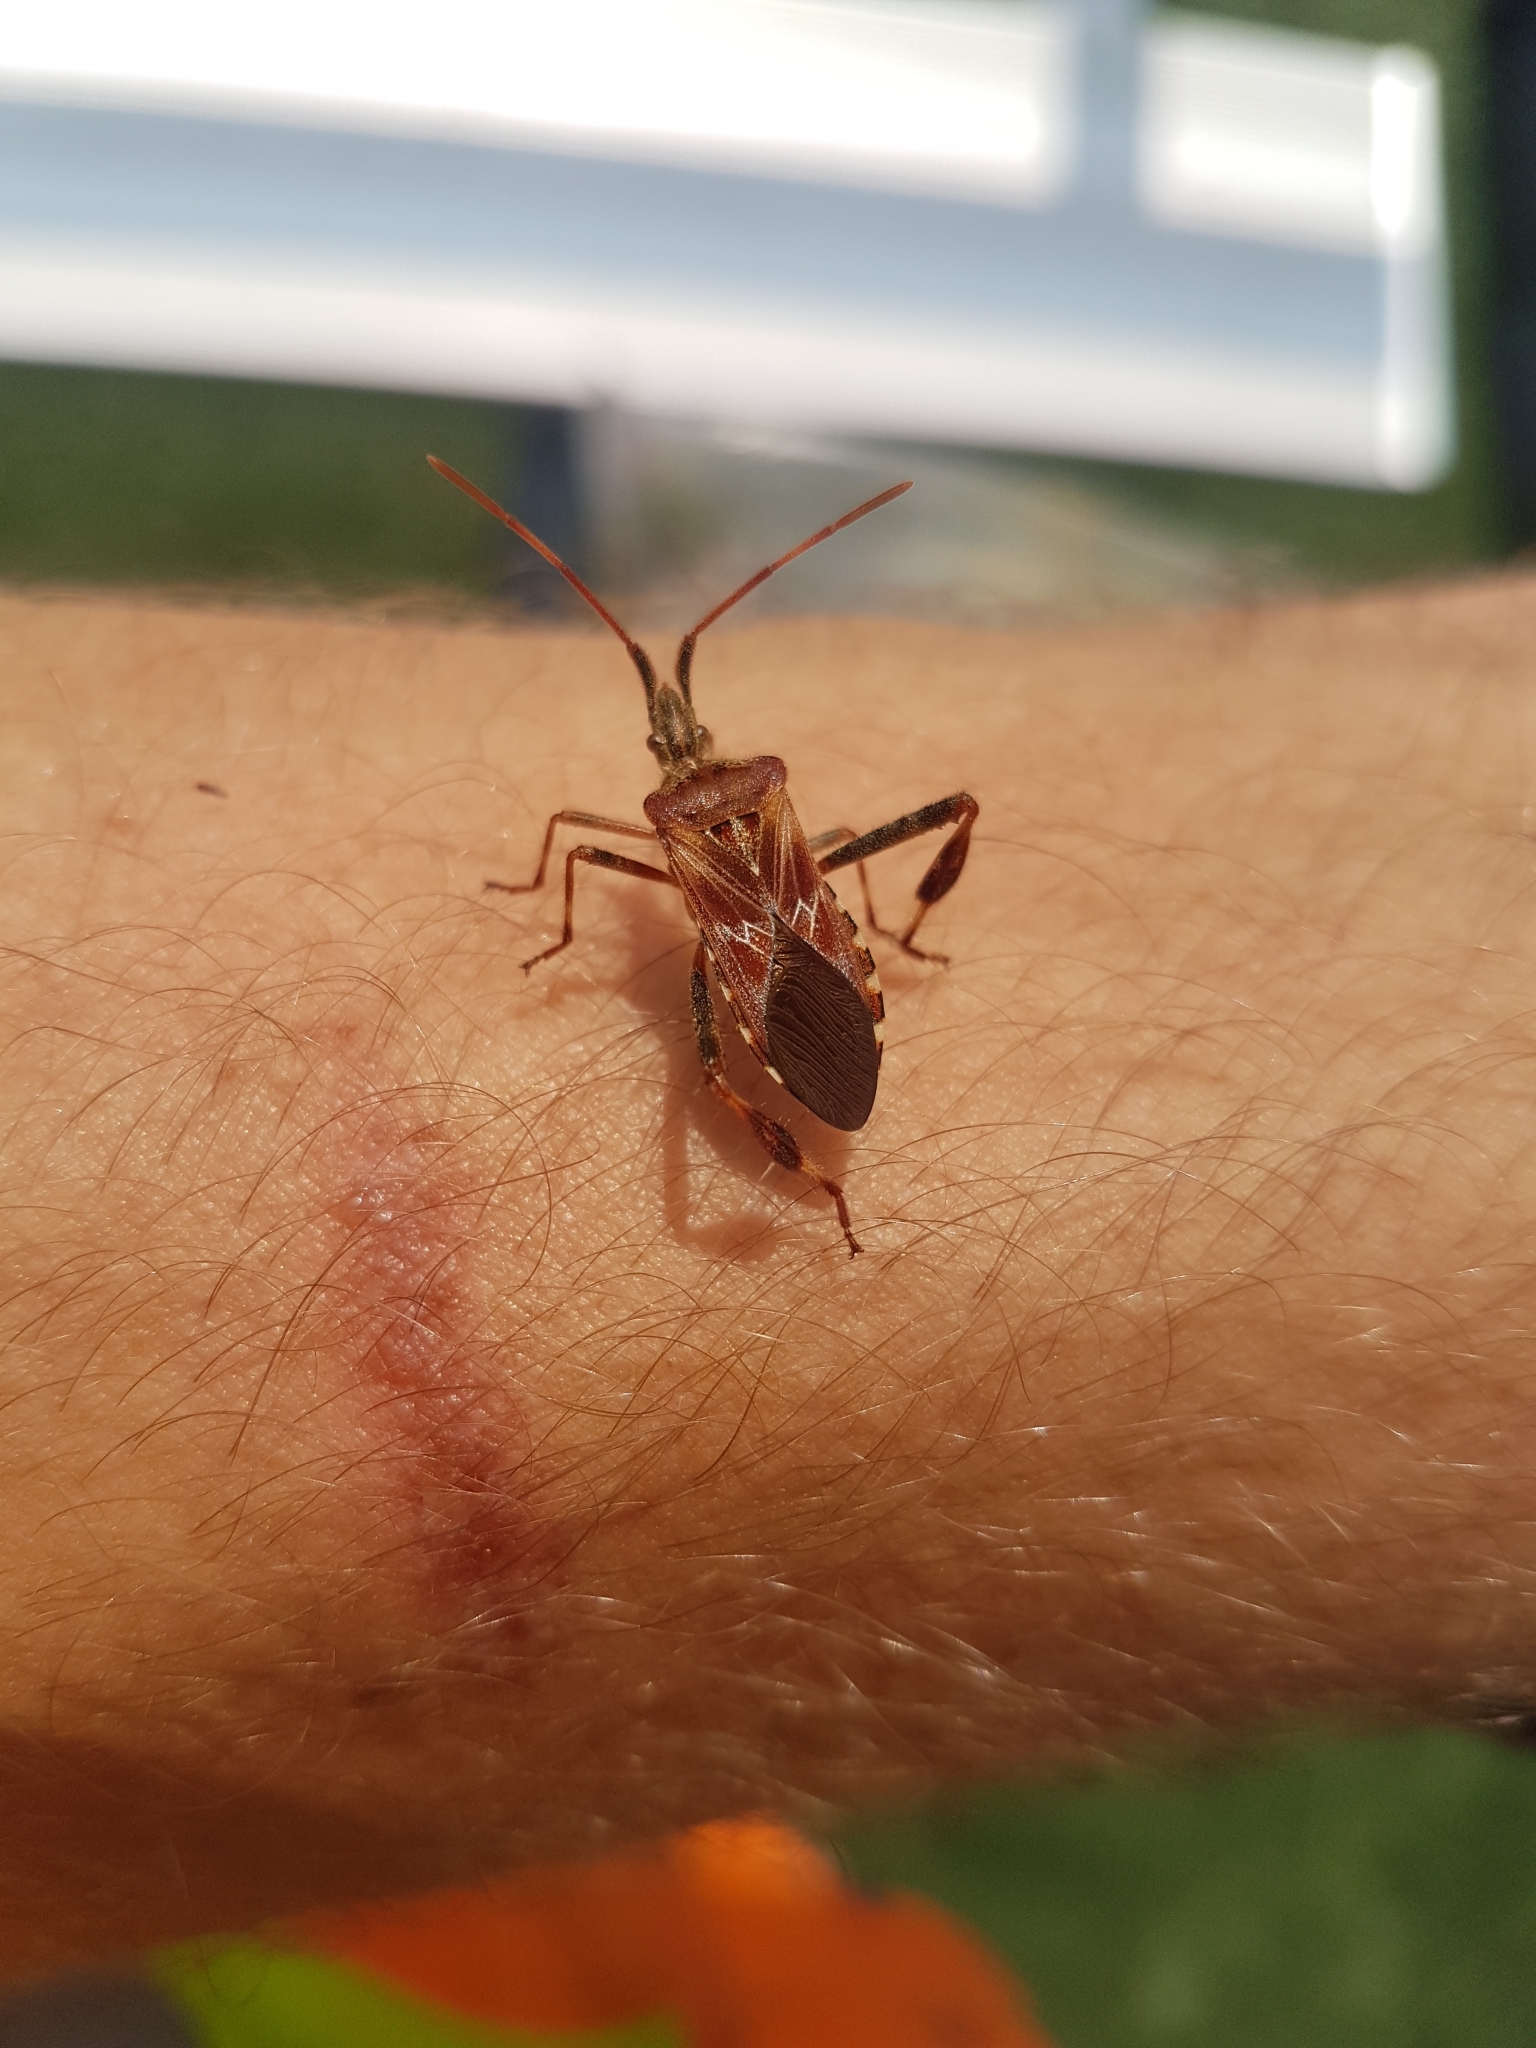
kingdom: Animalia
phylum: Arthropoda
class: Insecta
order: Hemiptera
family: Coreidae
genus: Leptoglossus
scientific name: Leptoglossus occidentalis
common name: Western conifer-seed bug
